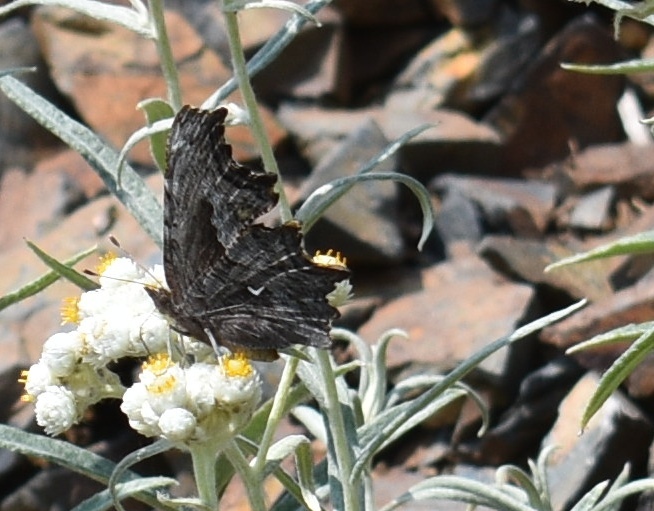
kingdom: Animalia
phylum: Arthropoda
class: Insecta
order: Lepidoptera
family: Nymphalidae
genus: Polygonia
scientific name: Polygonia gracilis
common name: Hoary comma
